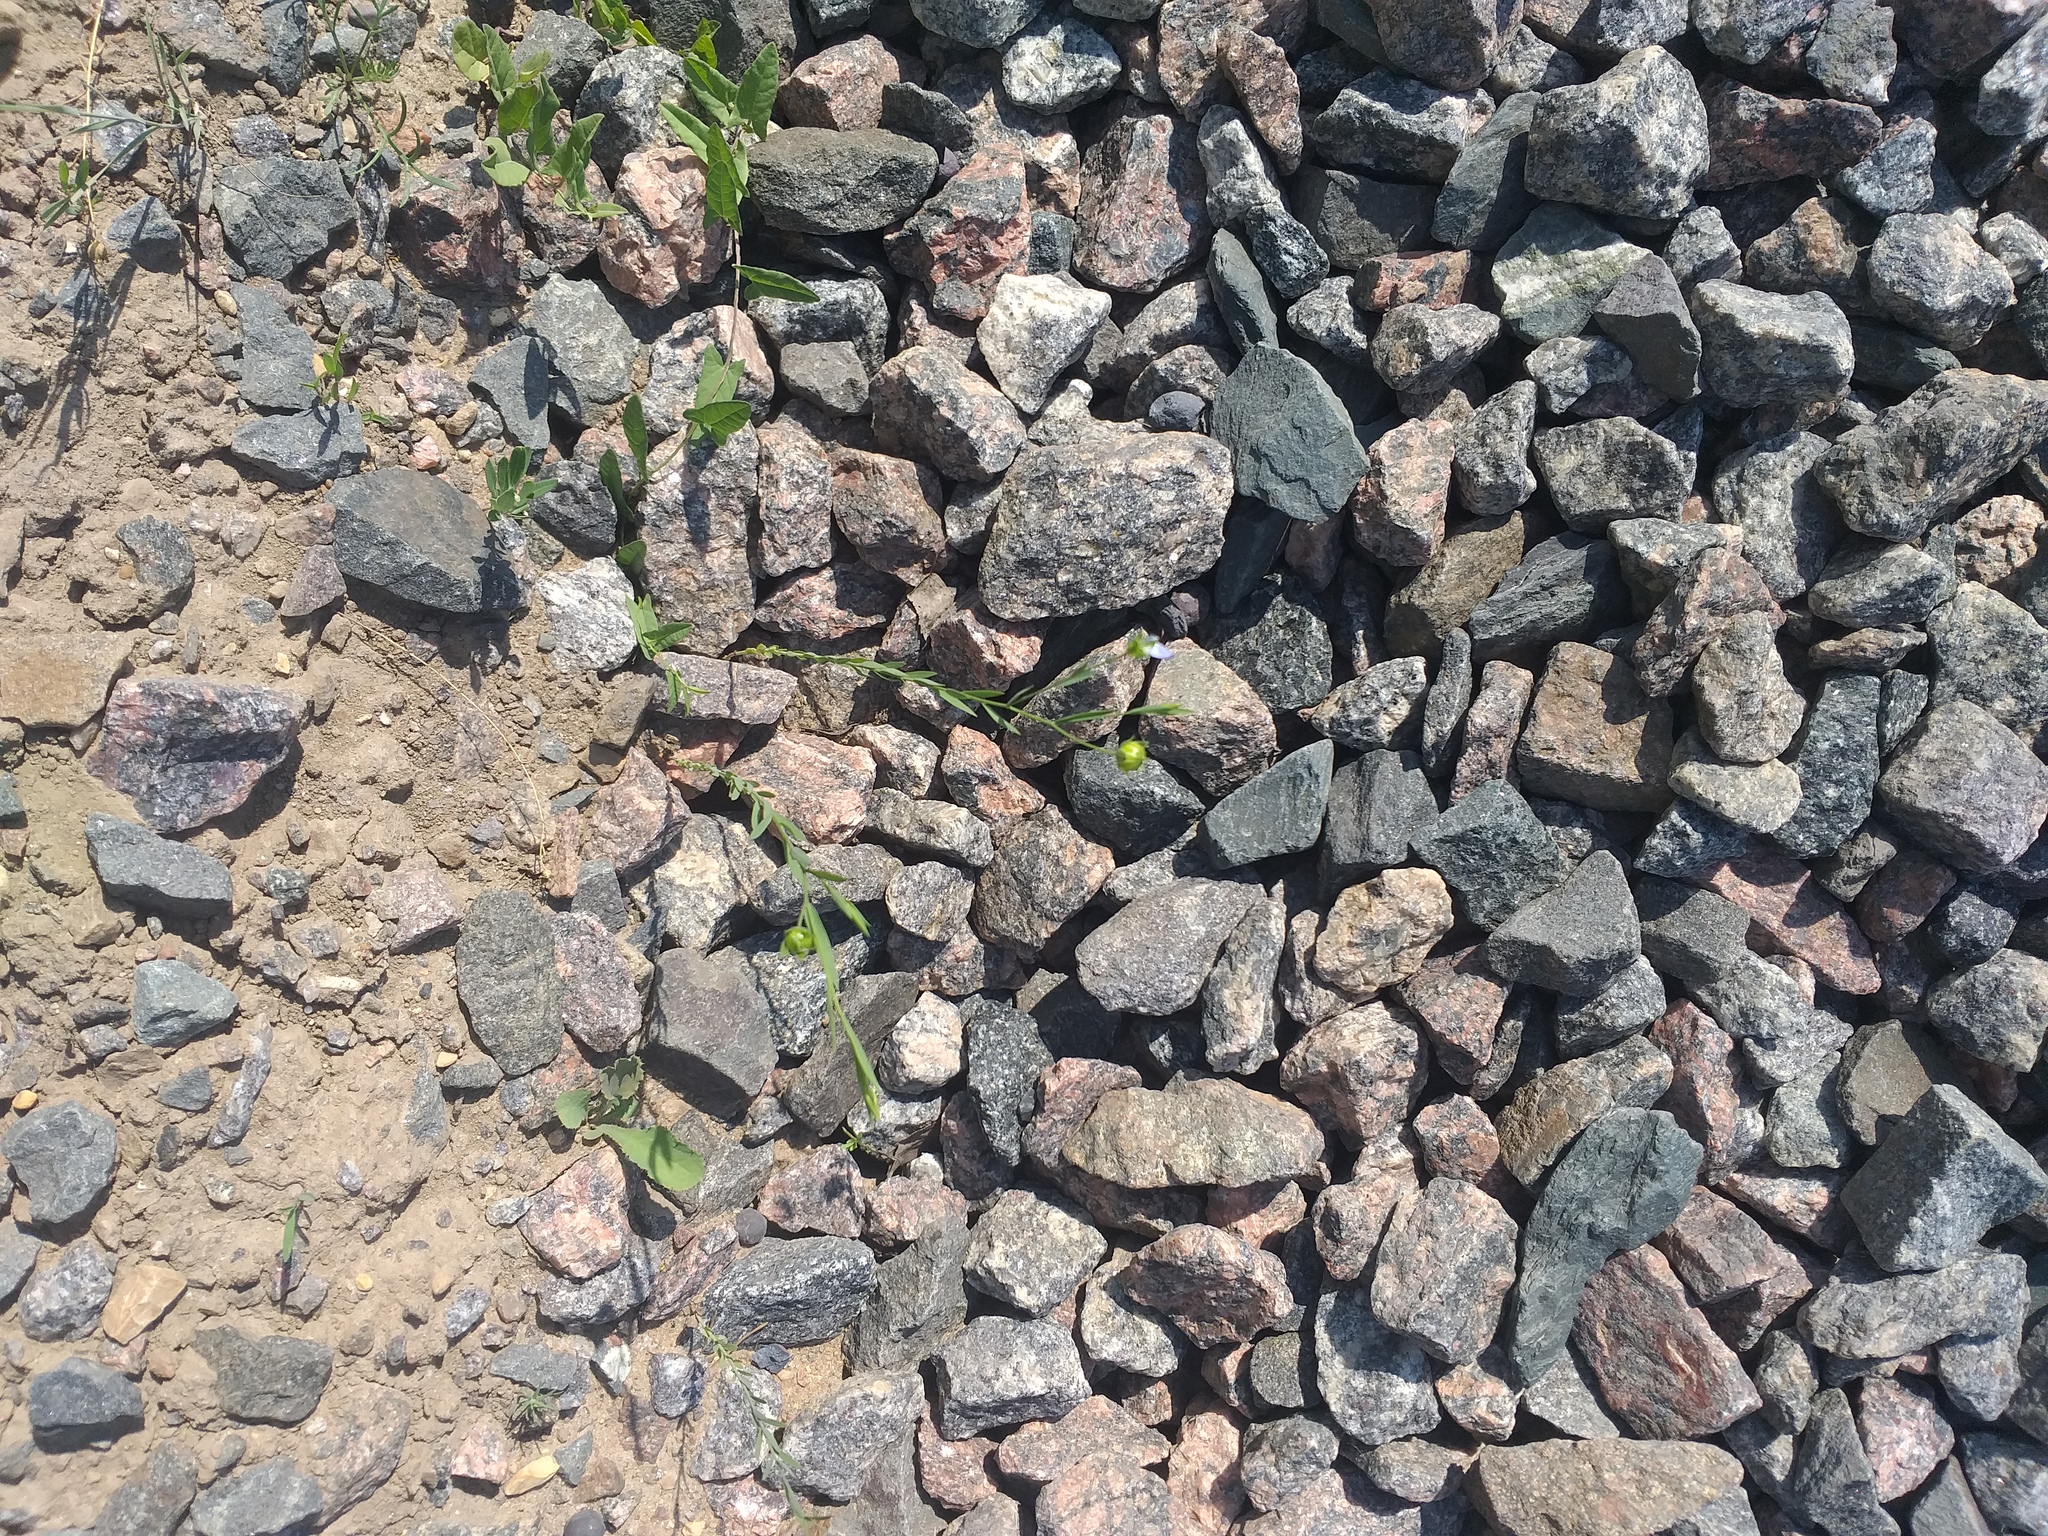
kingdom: Plantae
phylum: Tracheophyta
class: Magnoliopsida
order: Malpighiales
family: Linaceae
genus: Linum
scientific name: Linum usitatissimum
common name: Flax
